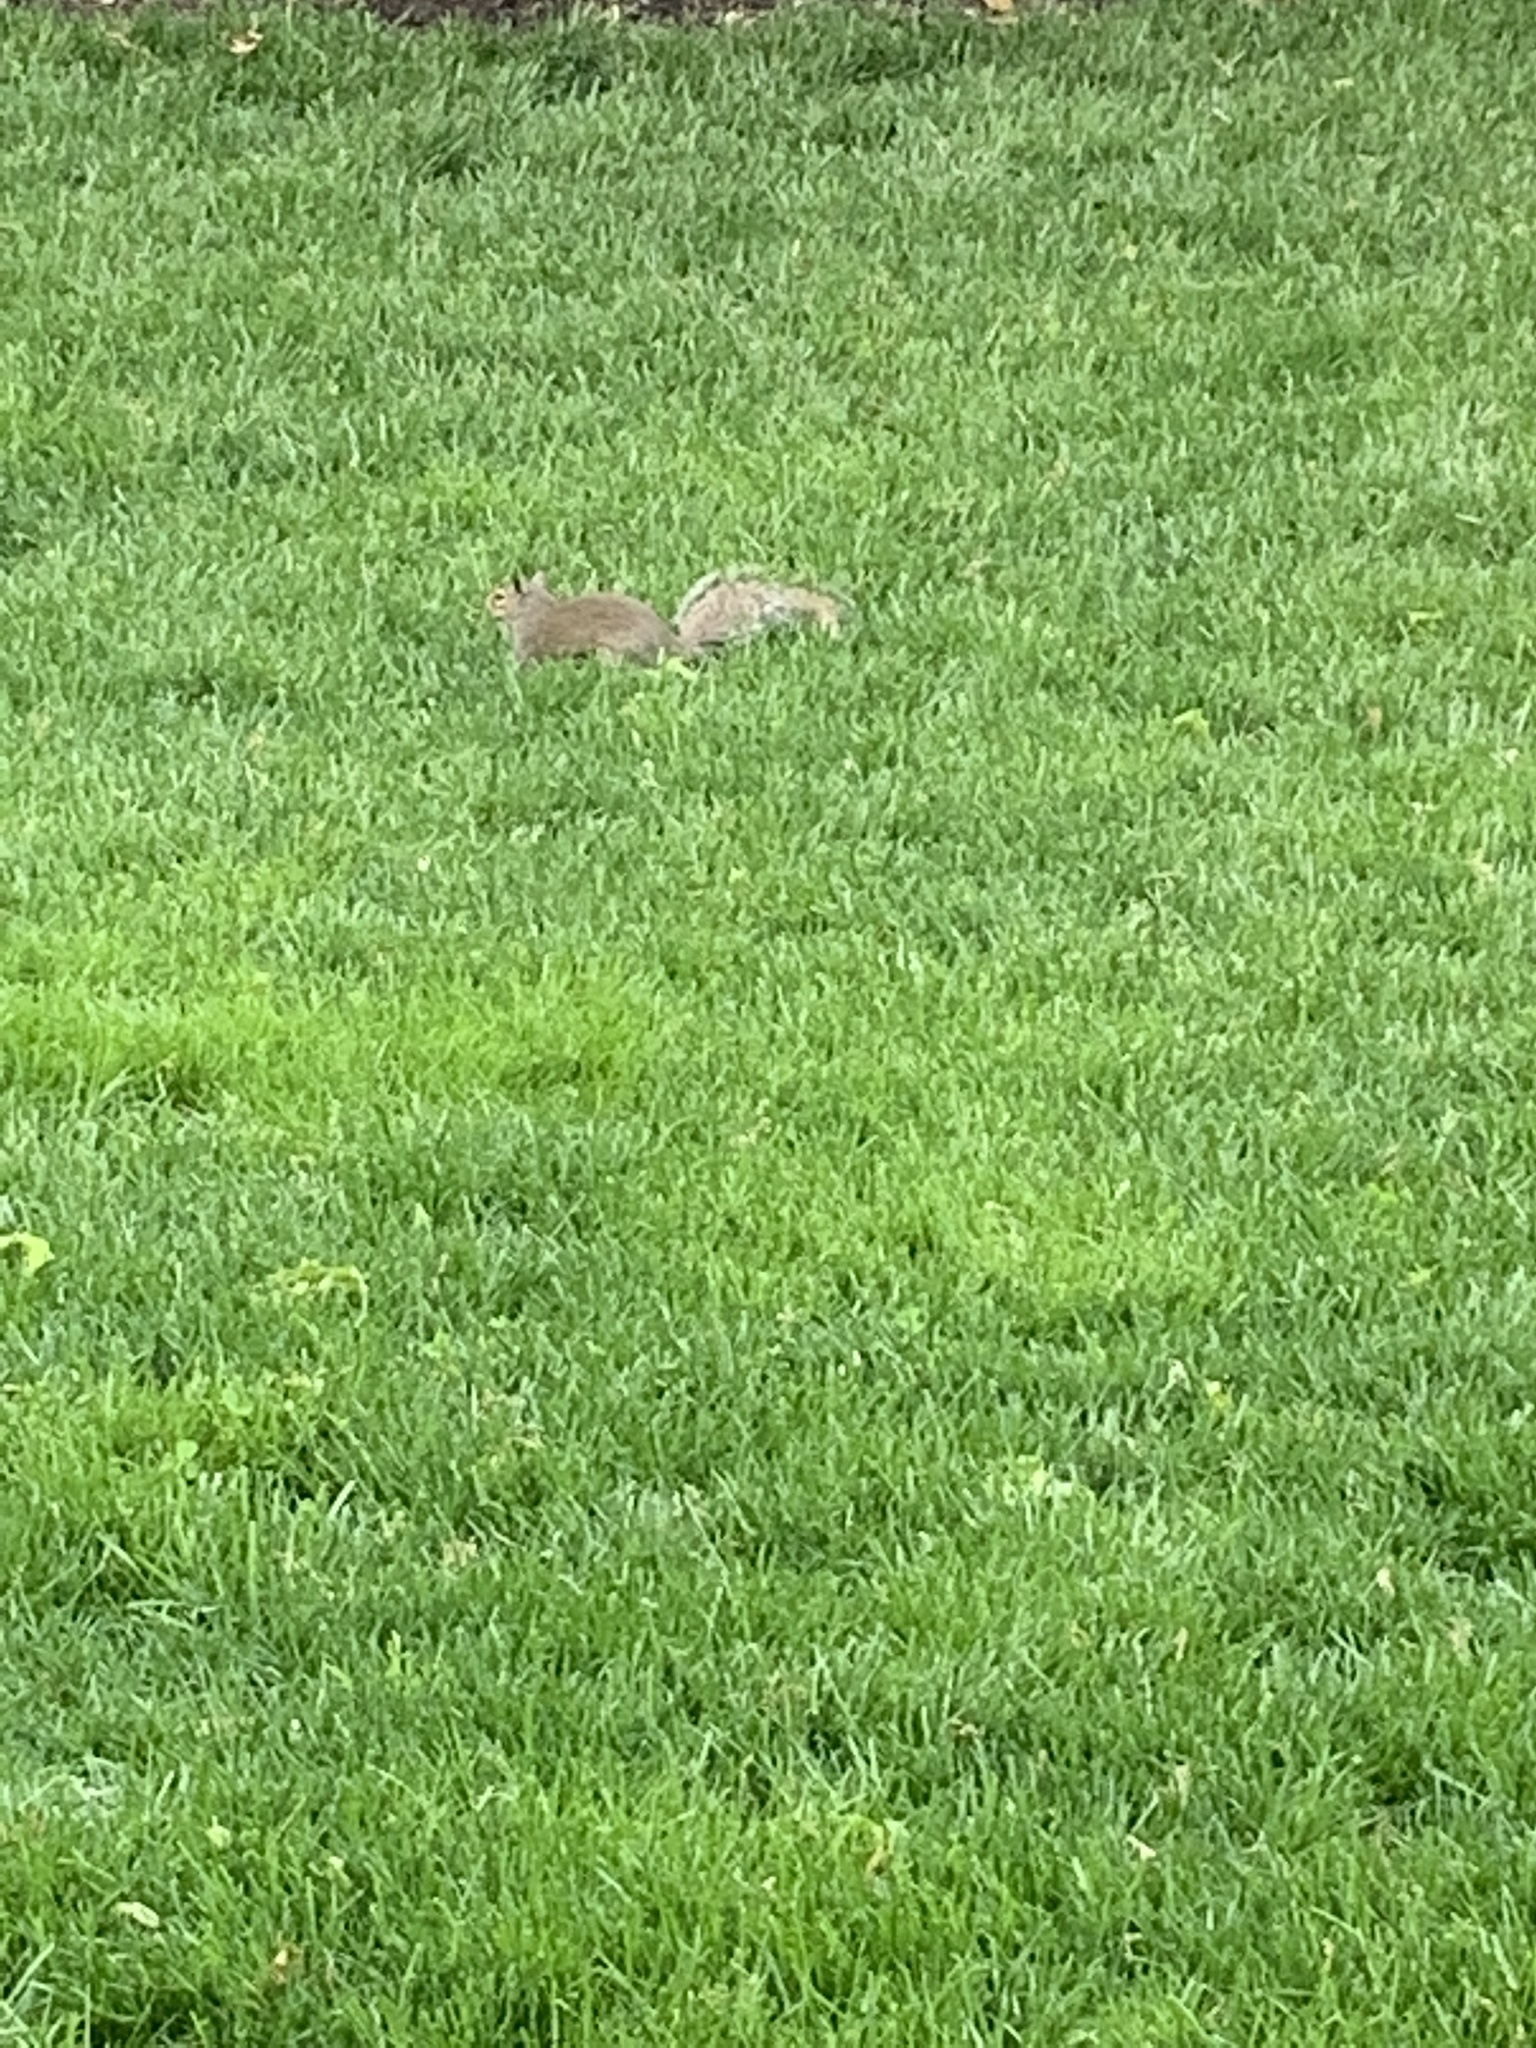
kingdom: Animalia
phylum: Chordata
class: Mammalia
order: Rodentia
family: Sciuridae
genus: Sciurus
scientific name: Sciurus carolinensis
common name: Eastern gray squirrel
